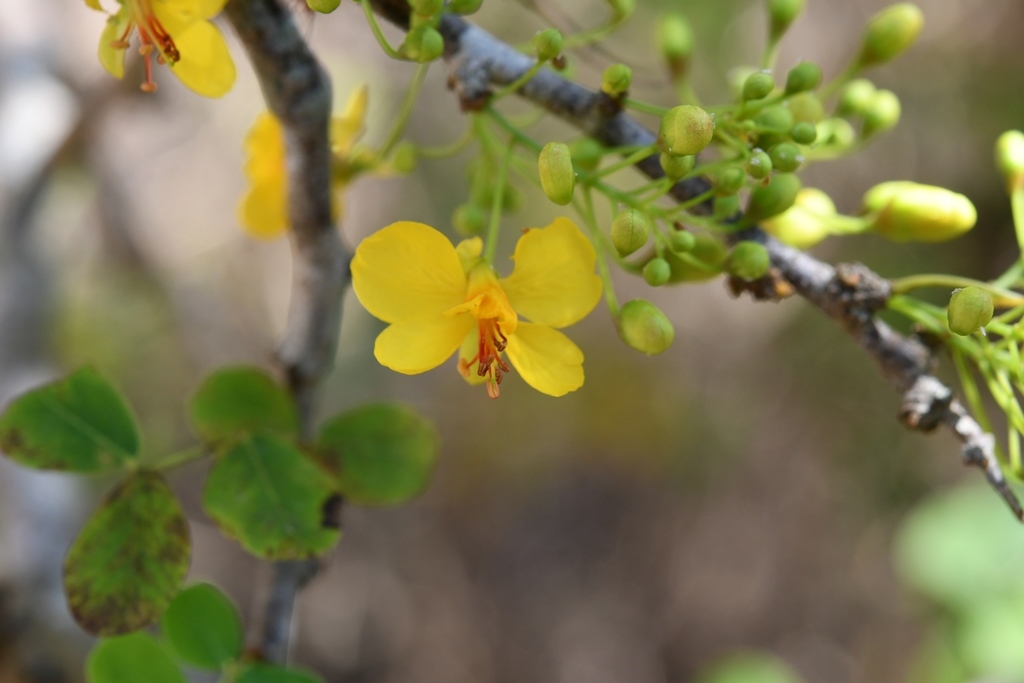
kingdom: Plantae
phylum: Tracheophyta
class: Magnoliopsida
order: Fabales
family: Fabaceae
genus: Haematoxylum
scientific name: Haematoxylum brasiletto
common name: Peachwood
